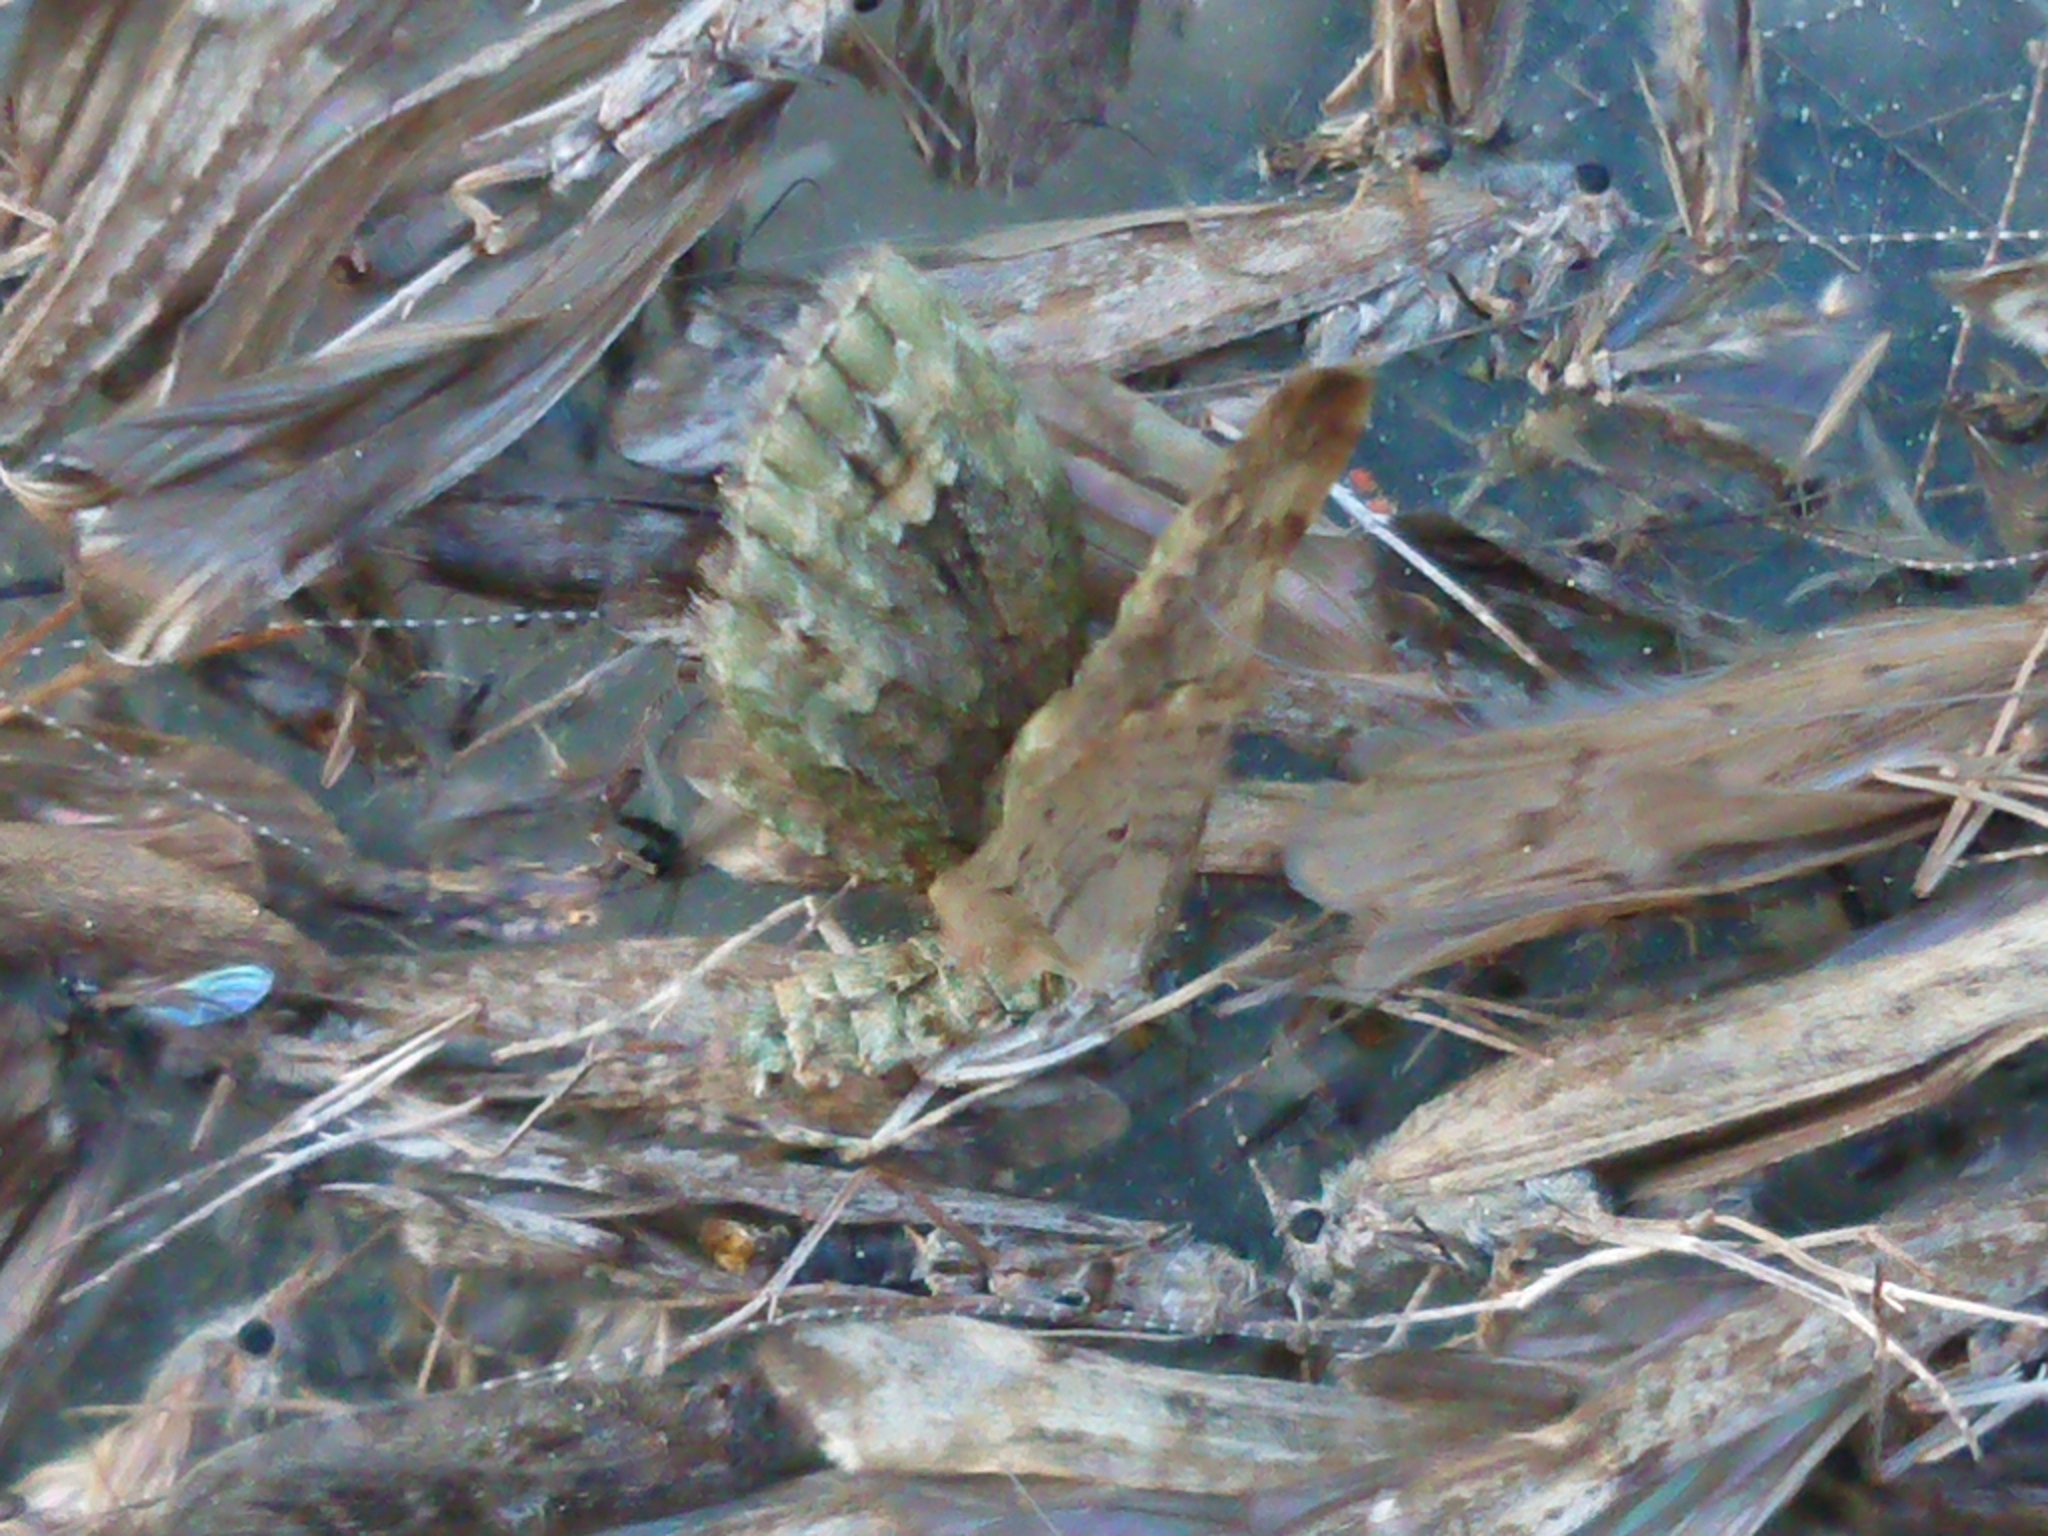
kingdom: Animalia
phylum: Arthropoda
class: Insecta
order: Lepidoptera
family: Geometridae
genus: Idaea
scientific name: Idaea mutanda
